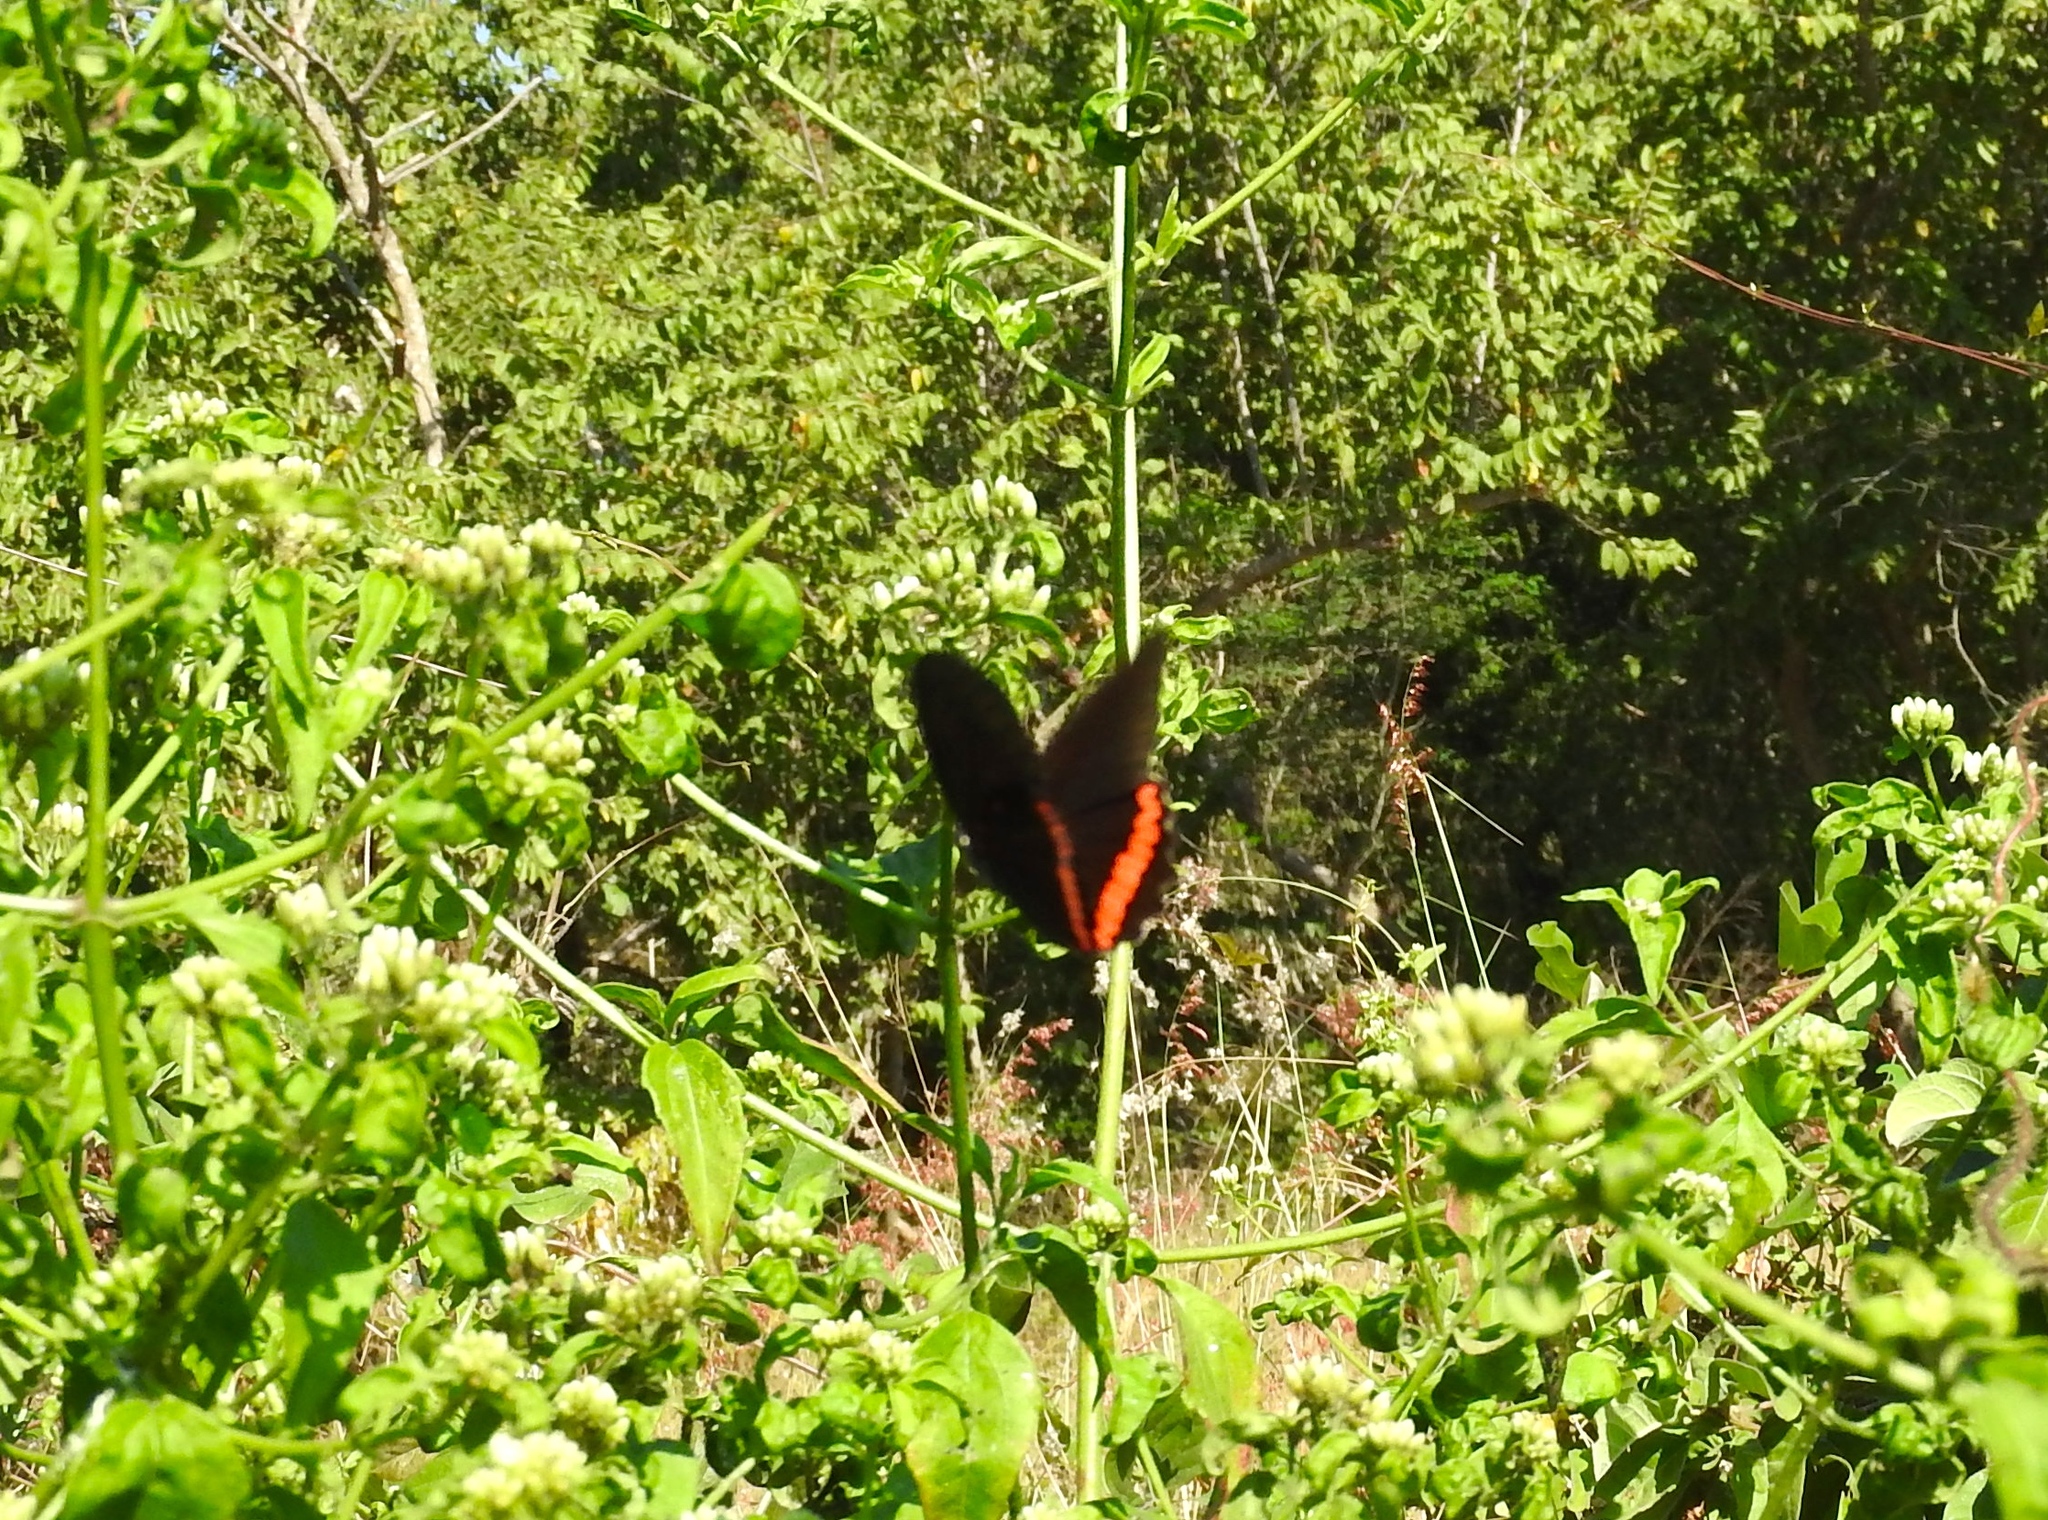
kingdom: Animalia
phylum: Arthropoda
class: Insecta
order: Lepidoptera
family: Nymphalidae
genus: Biblis
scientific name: Biblis aganisa
